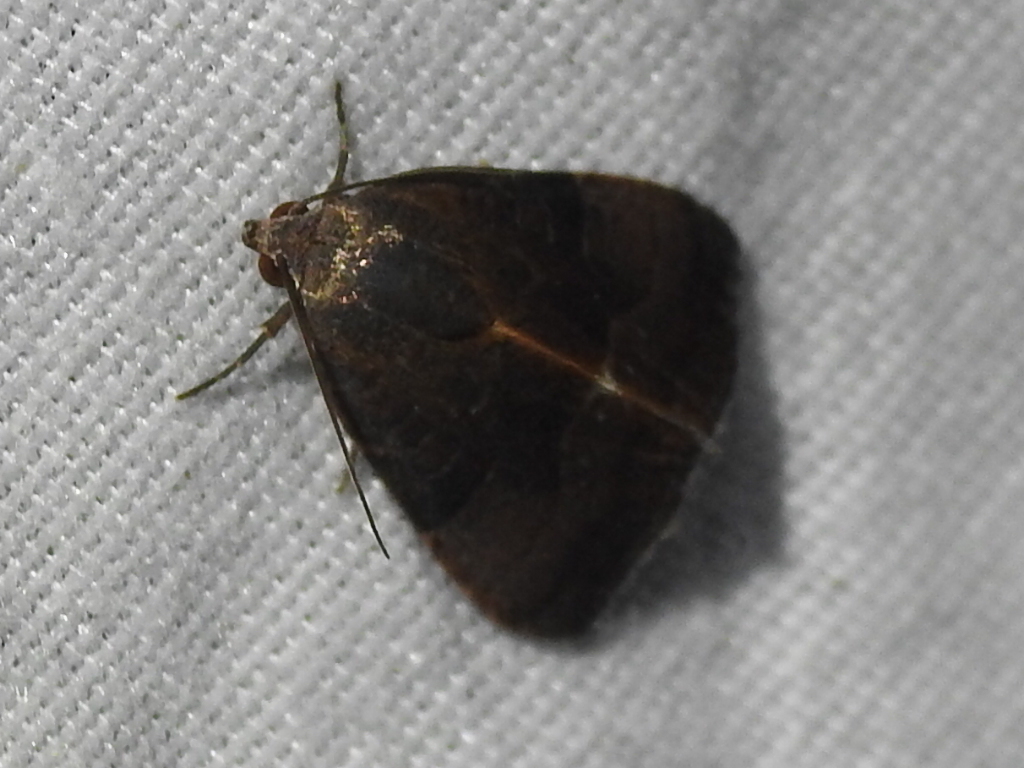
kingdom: Animalia
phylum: Arthropoda
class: Insecta
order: Lepidoptera
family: Noctuidae
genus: Galgula
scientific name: Galgula partita
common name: Wedgeling
